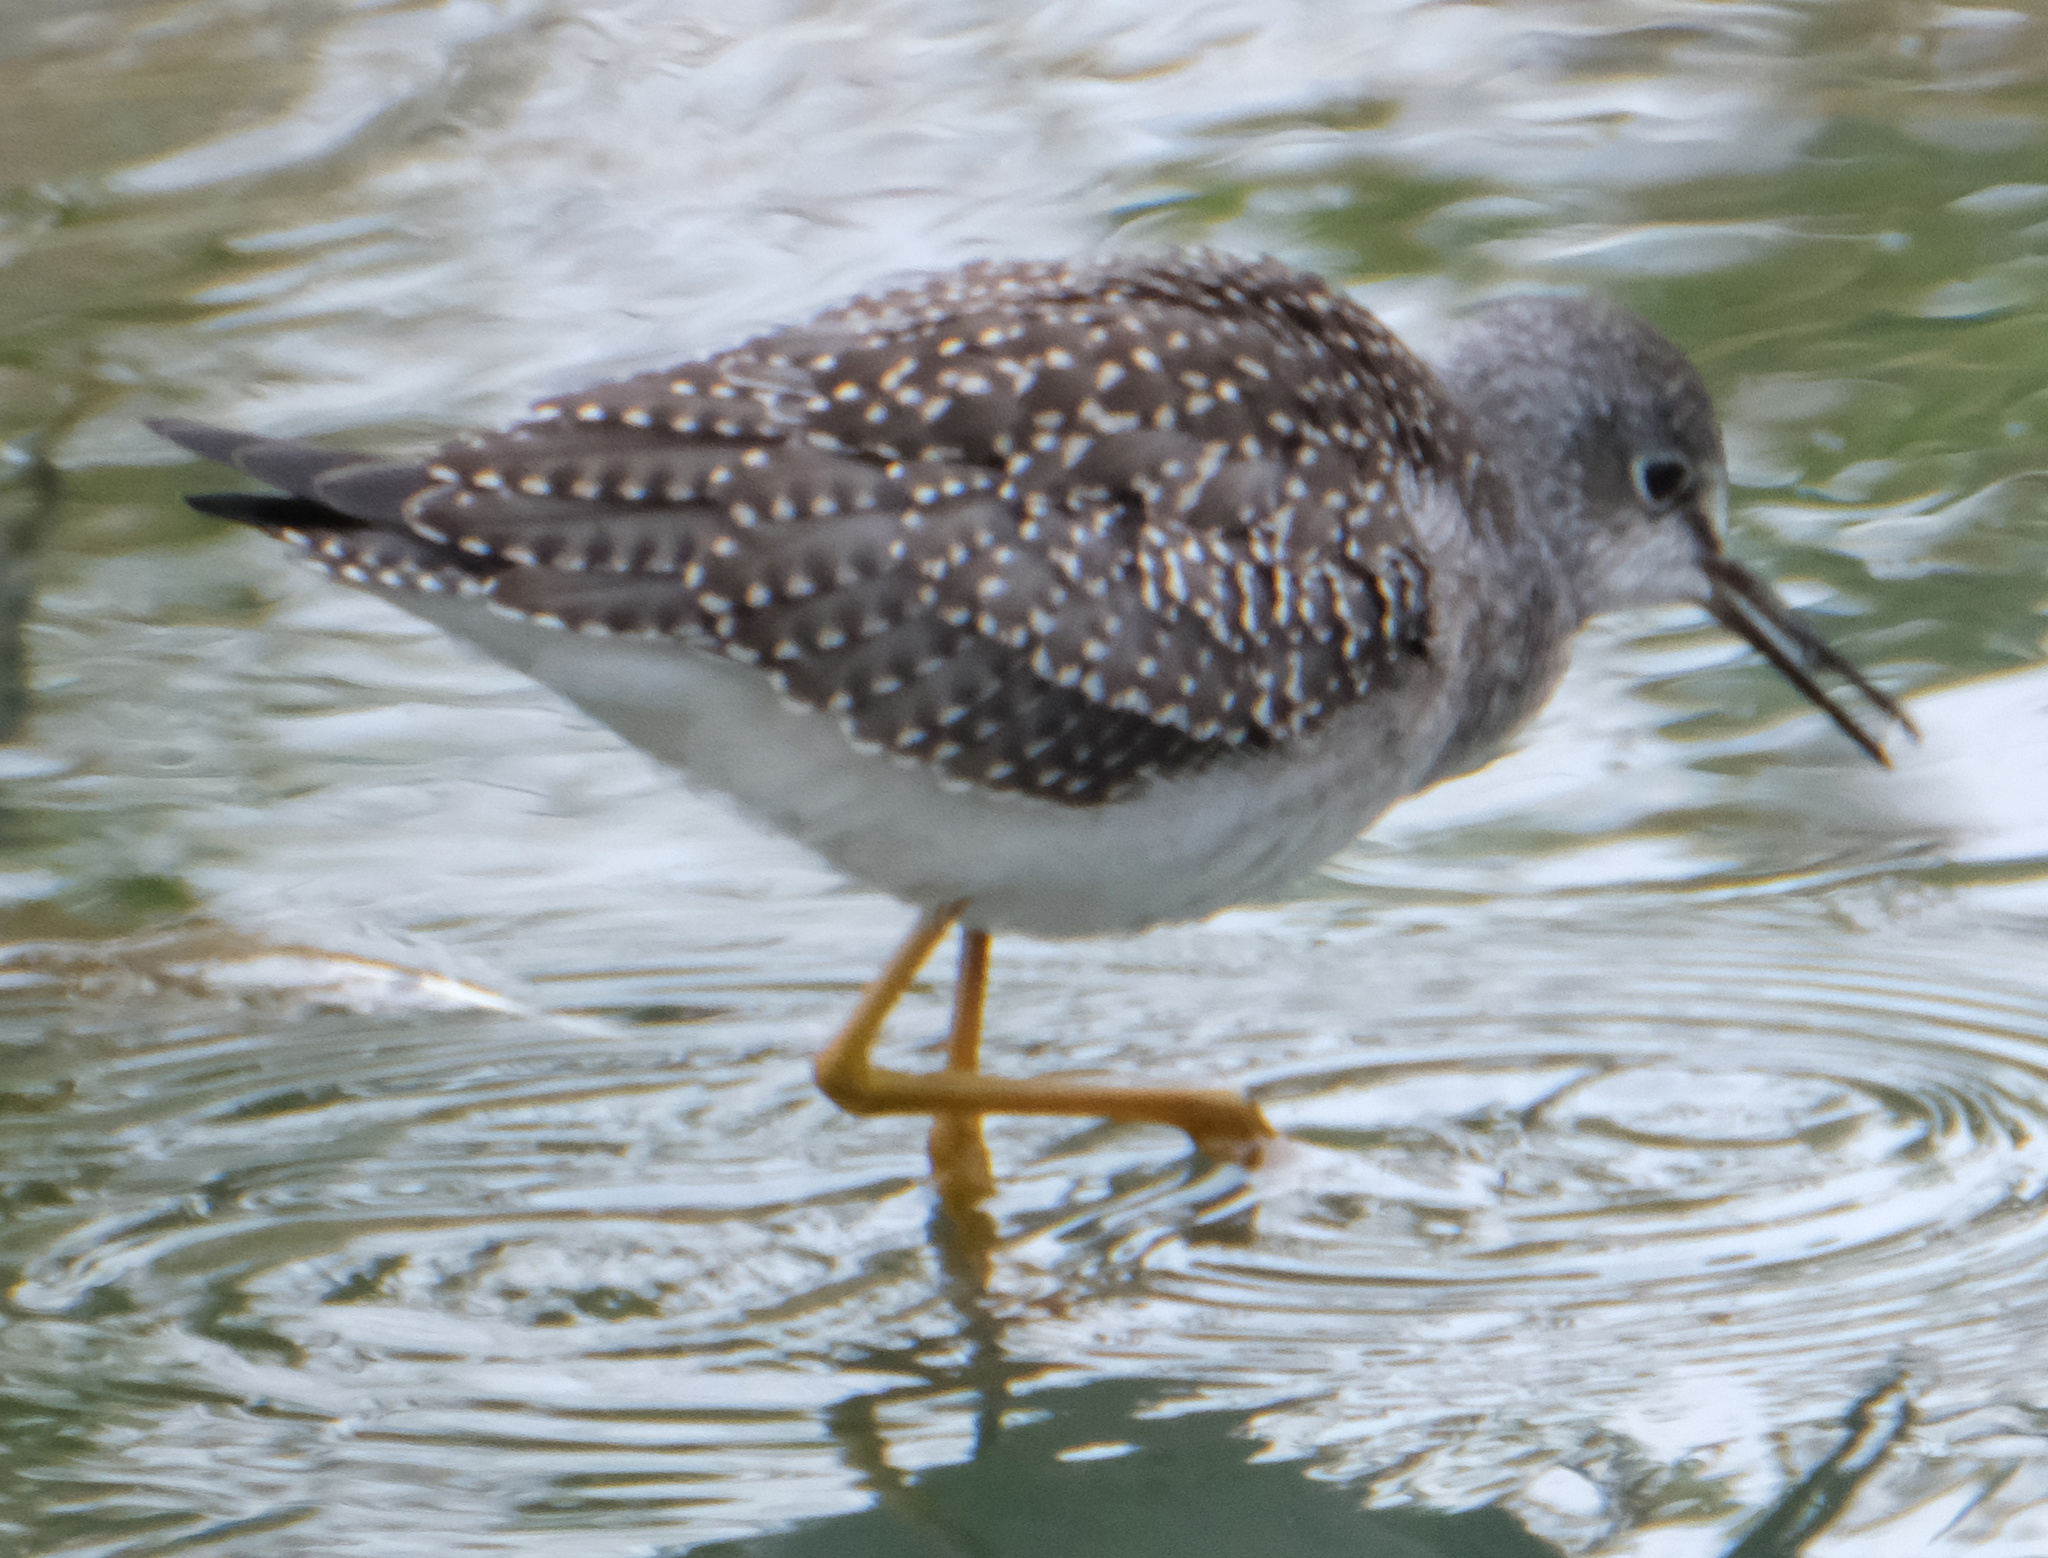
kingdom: Animalia
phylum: Chordata
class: Aves
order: Charadriiformes
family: Scolopacidae
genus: Tringa
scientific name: Tringa flavipes
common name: Lesser yellowlegs
